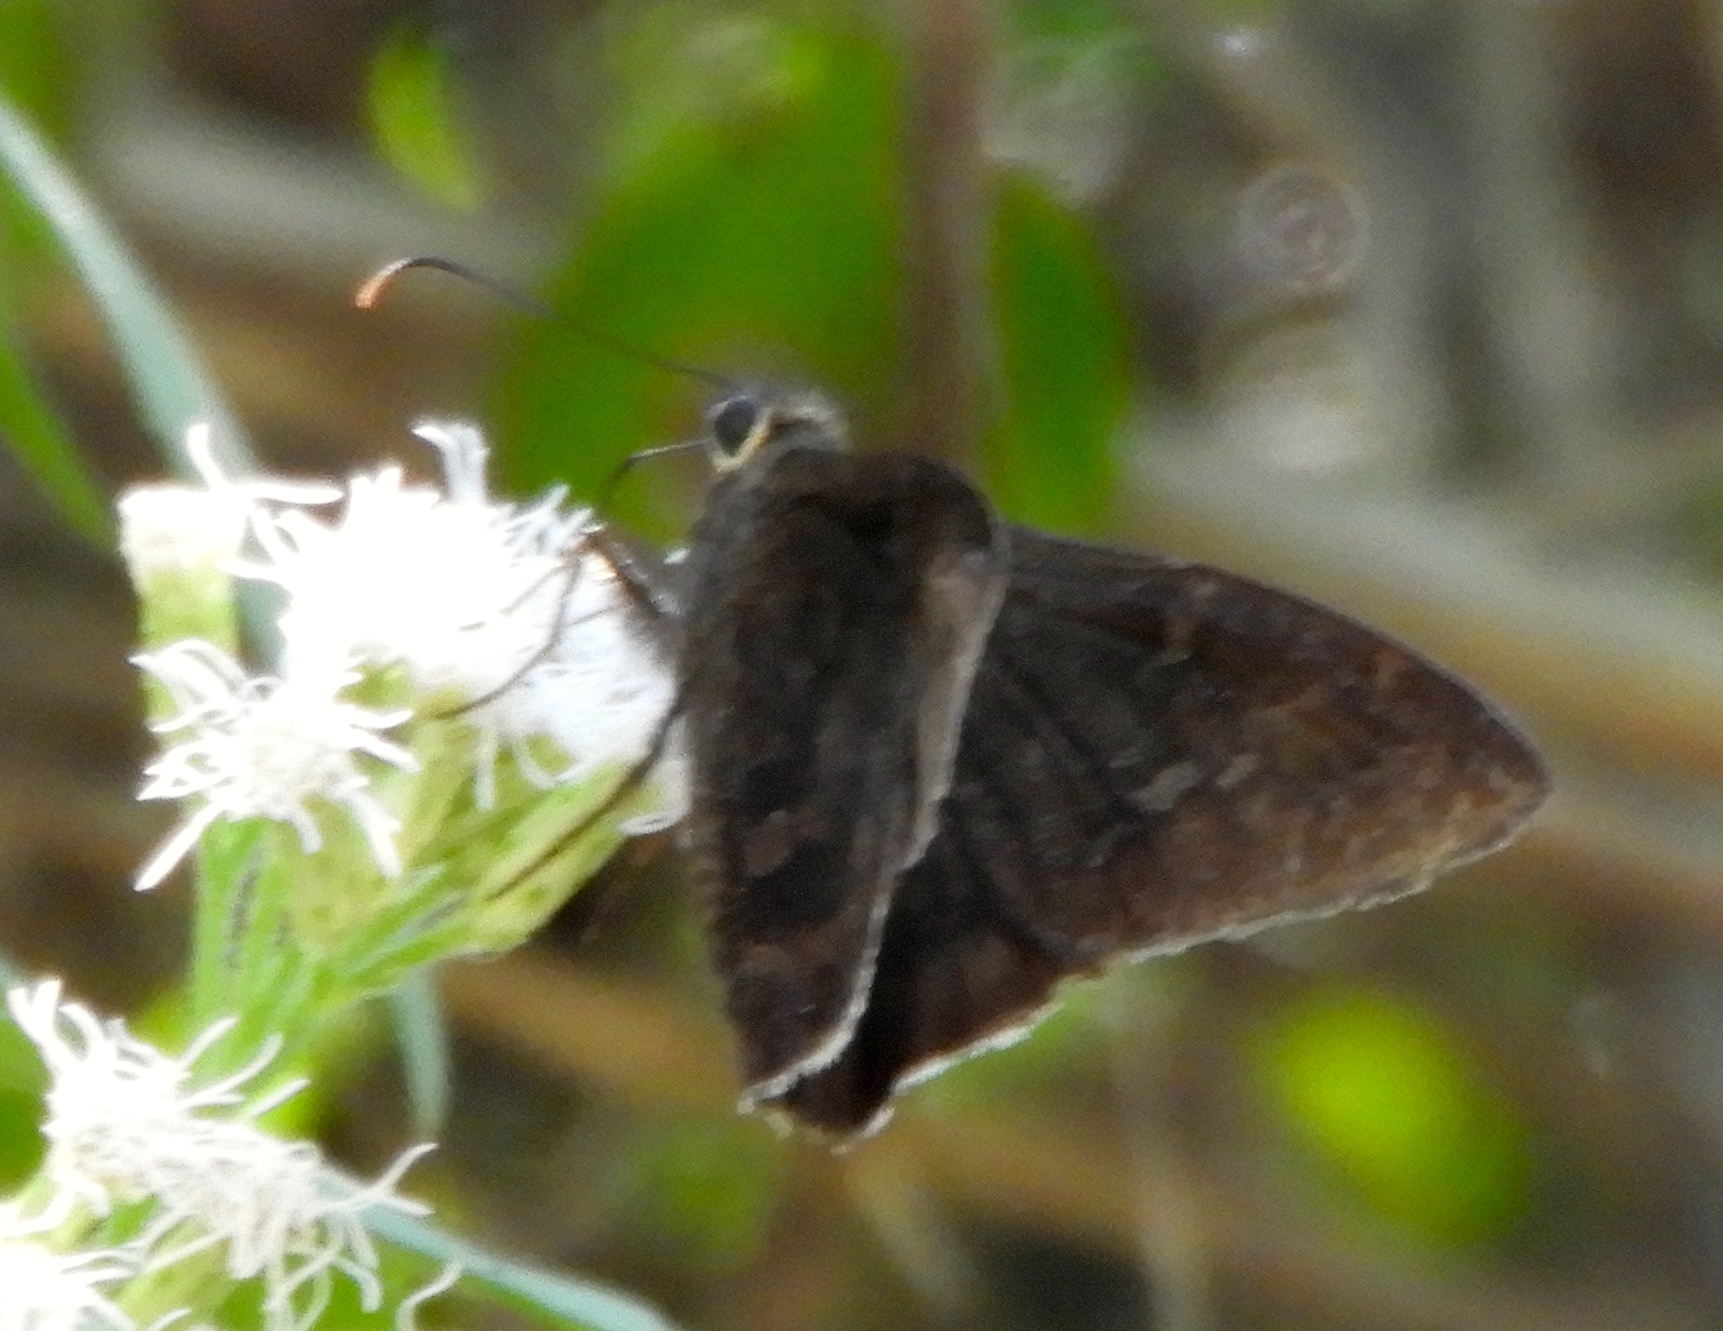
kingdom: Animalia
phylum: Arthropoda
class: Insecta
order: Lepidoptera
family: Hesperiidae
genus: Autochton
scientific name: Autochton
